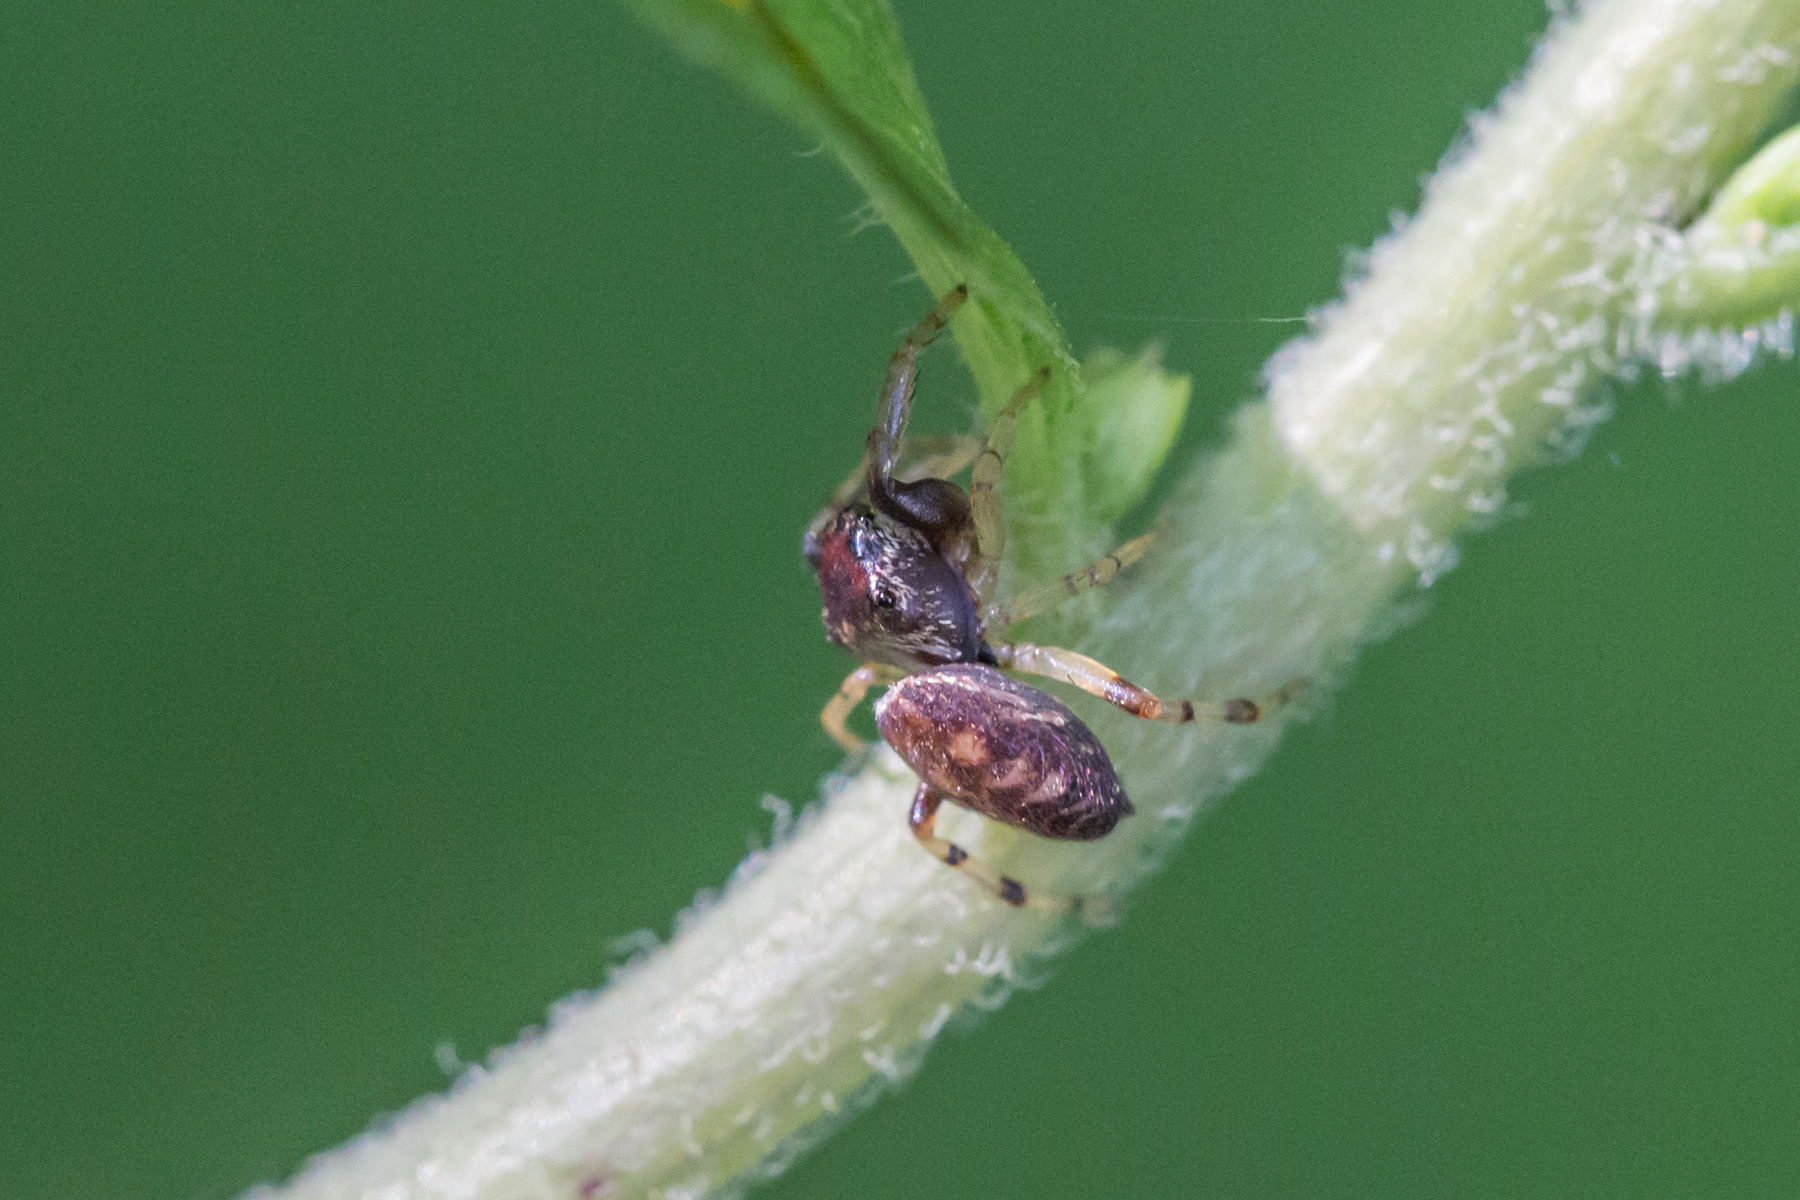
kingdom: Animalia
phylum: Arthropoda
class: Arachnida
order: Araneae
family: Salticidae
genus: Zygoballus
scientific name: Zygoballus rufipes
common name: Jumping spiders
